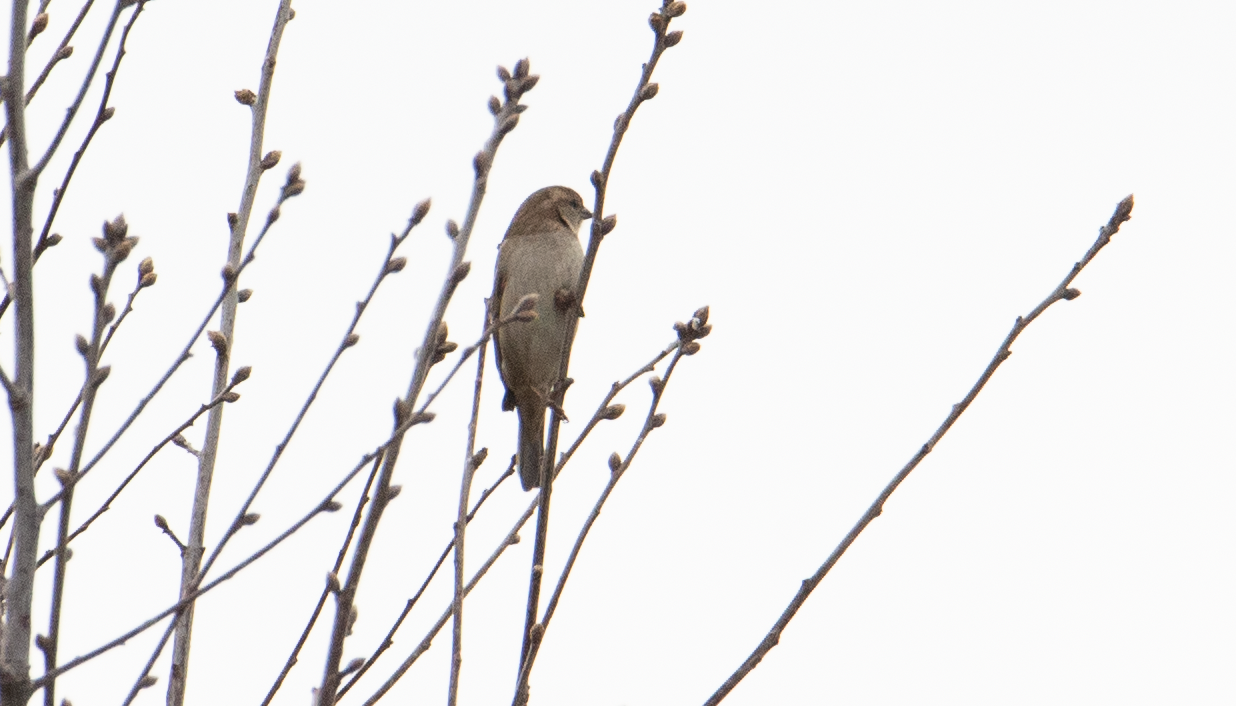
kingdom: Animalia
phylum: Chordata
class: Aves
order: Passeriformes
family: Passeridae
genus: Passer
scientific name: Passer italiae
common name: Italian sparrow
